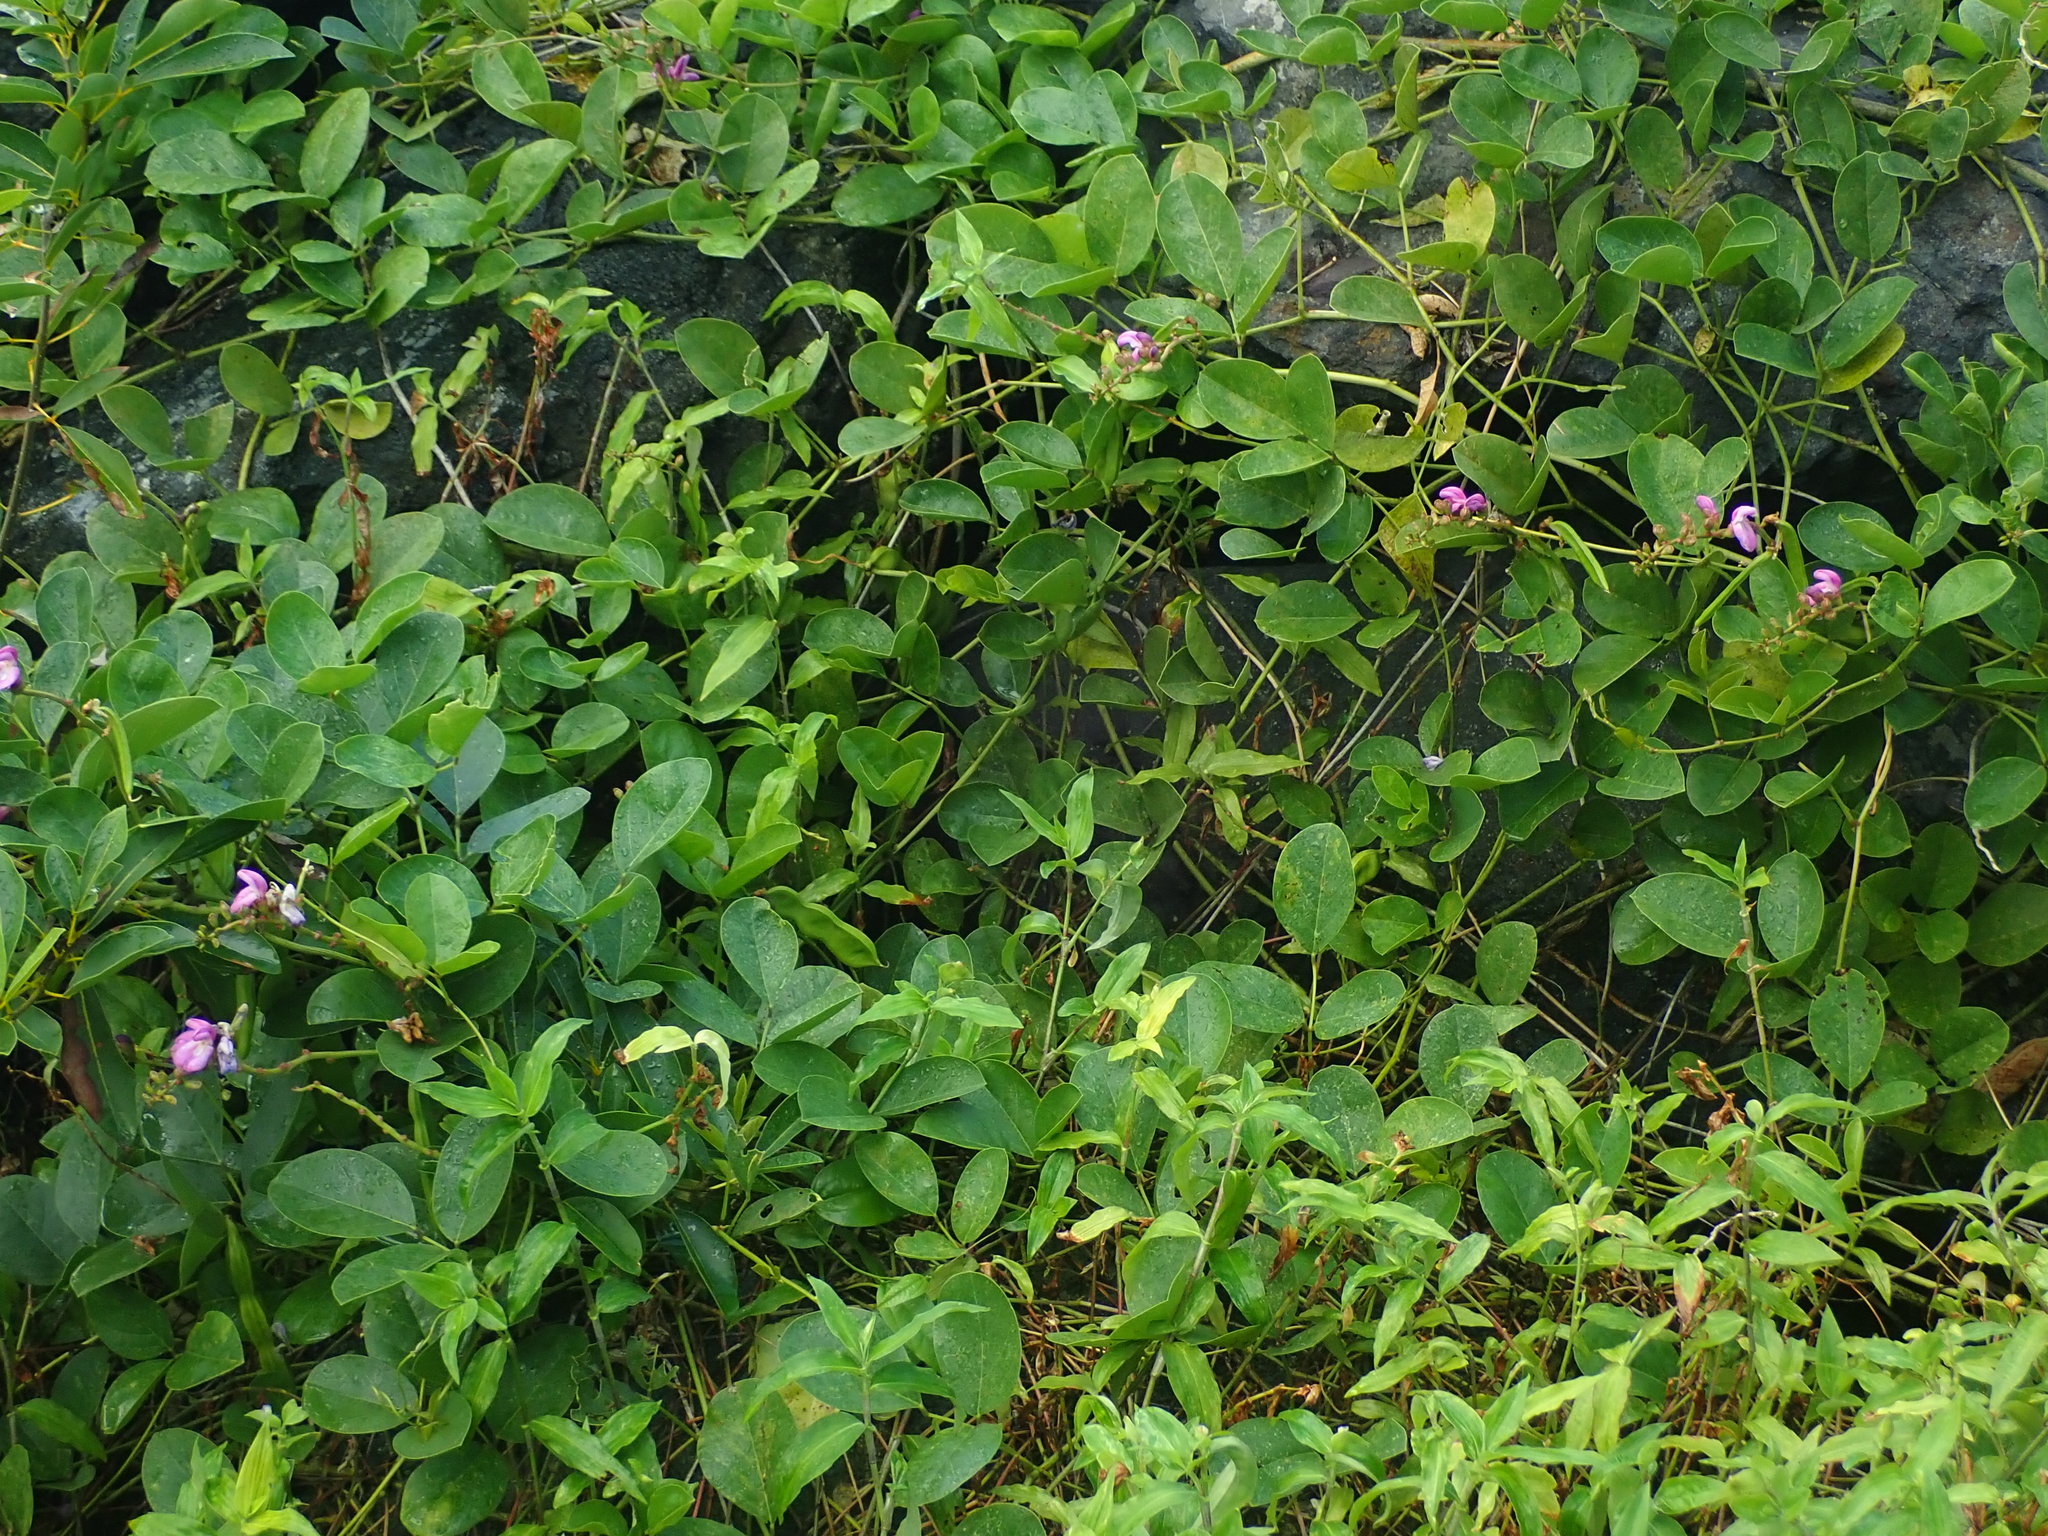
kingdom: Plantae
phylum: Tracheophyta
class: Magnoliopsida
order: Fabales
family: Fabaceae
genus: Canavalia
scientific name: Canavalia rosea
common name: Beach-bean
